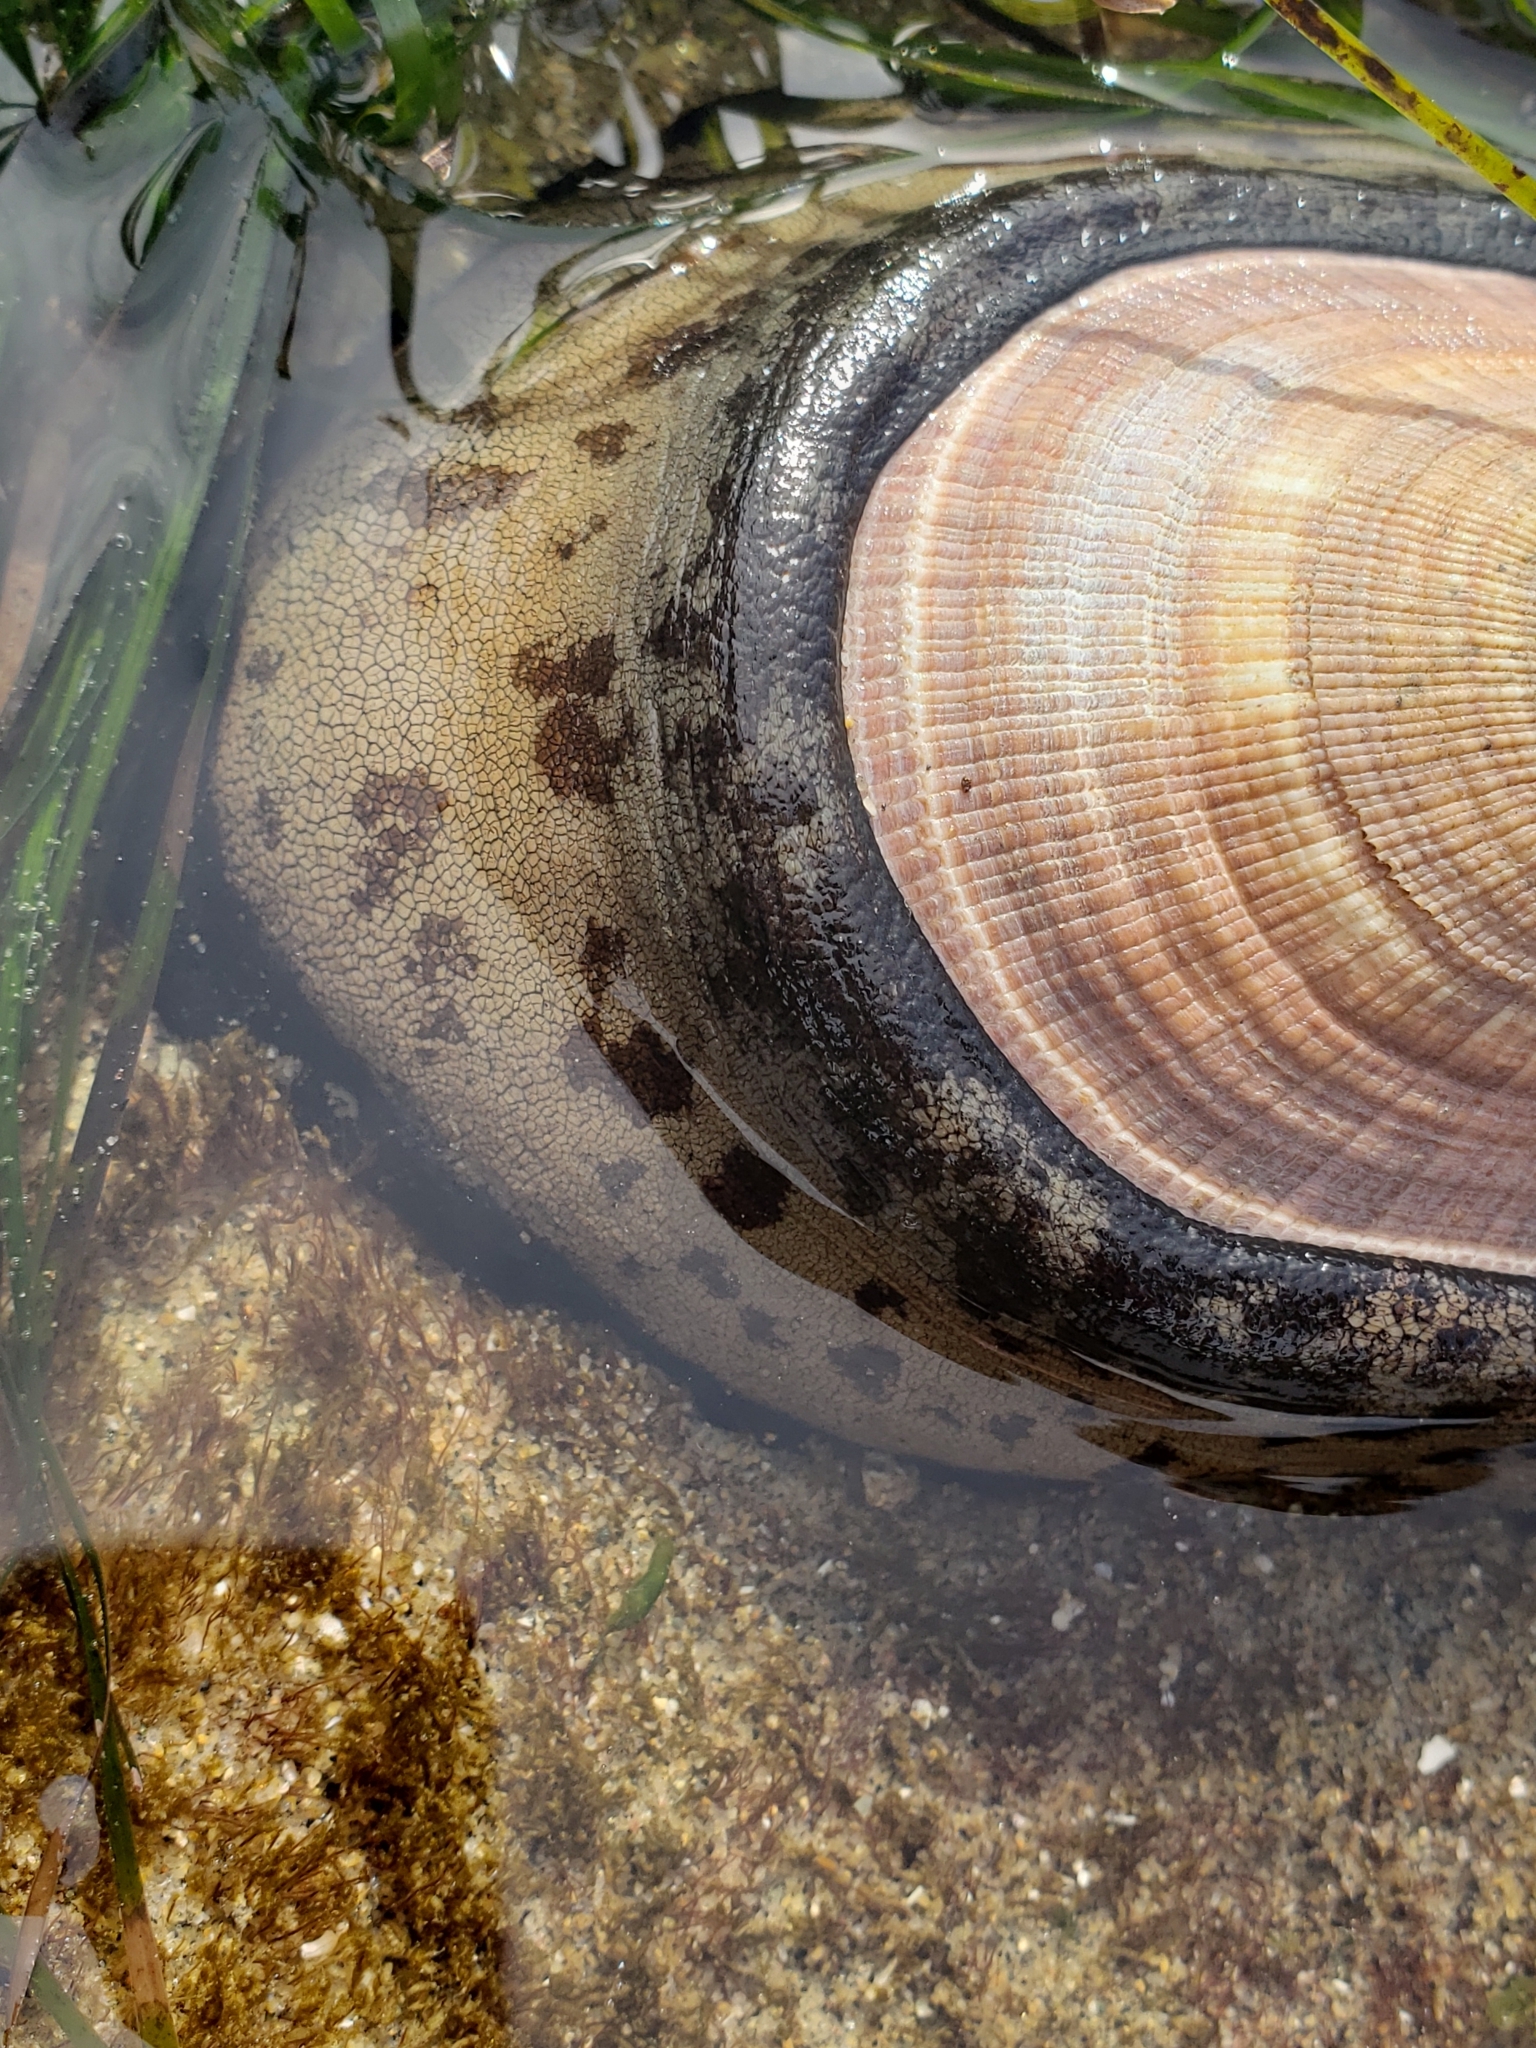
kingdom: Animalia
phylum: Mollusca
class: Gastropoda
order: Lepetellida
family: Fissurellidae
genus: Megathura
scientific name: Megathura crenulata
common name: Giant keyhole limpet
